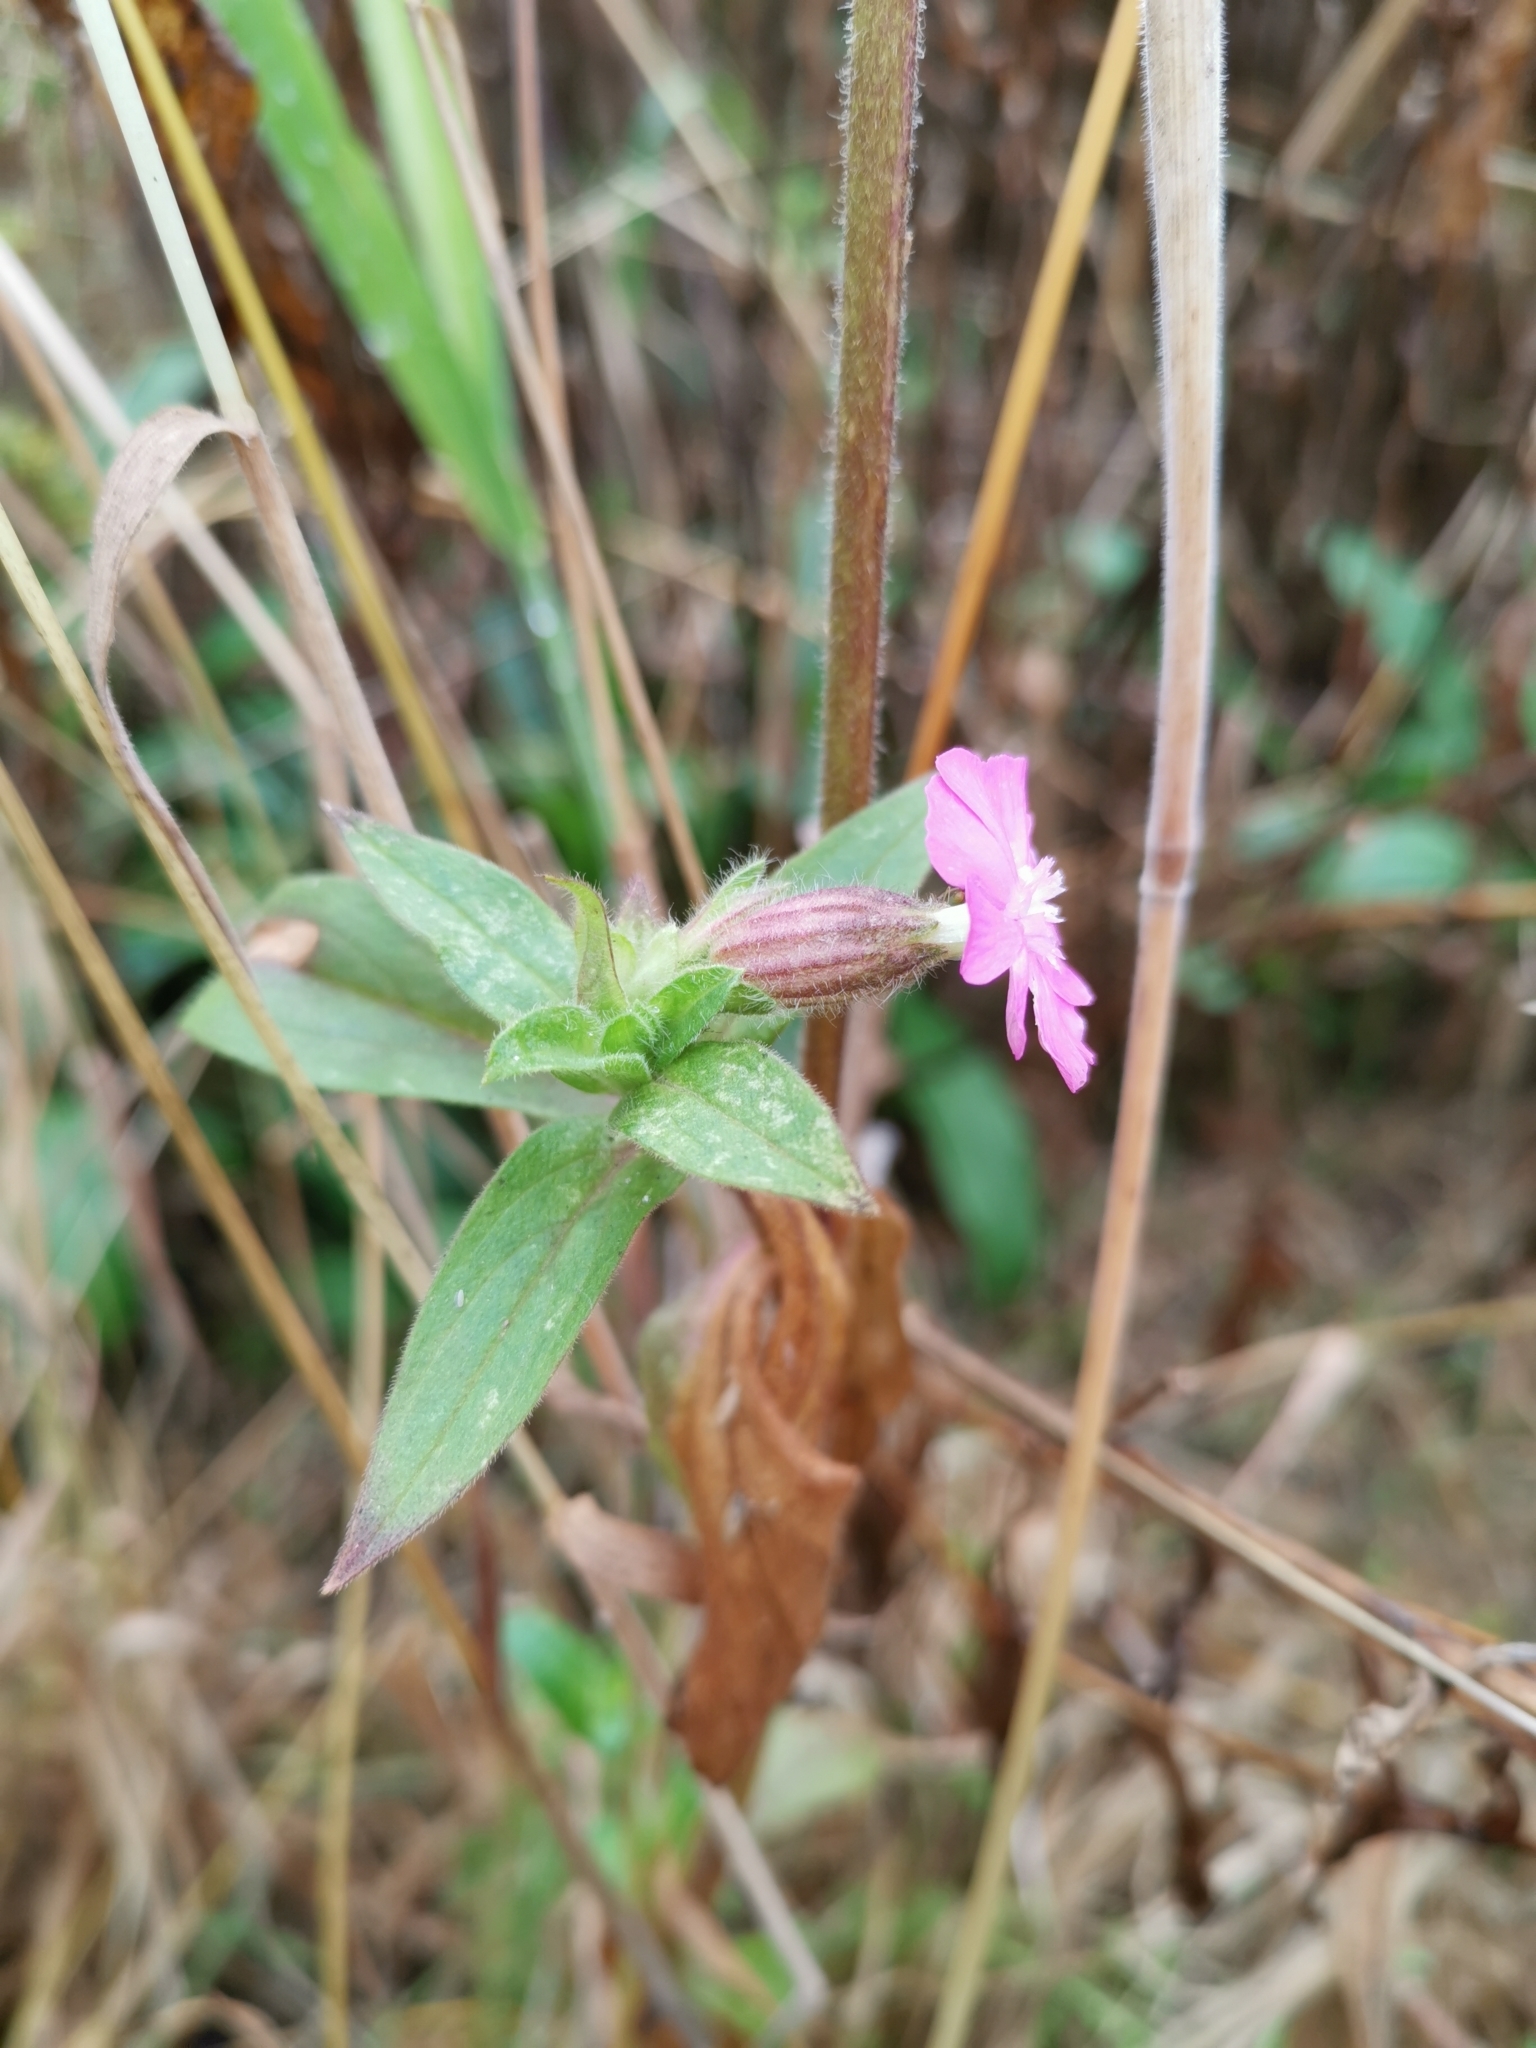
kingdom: Plantae
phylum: Tracheophyta
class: Magnoliopsida
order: Caryophyllales
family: Caryophyllaceae
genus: Silene
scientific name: Silene dioica
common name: Red campion
